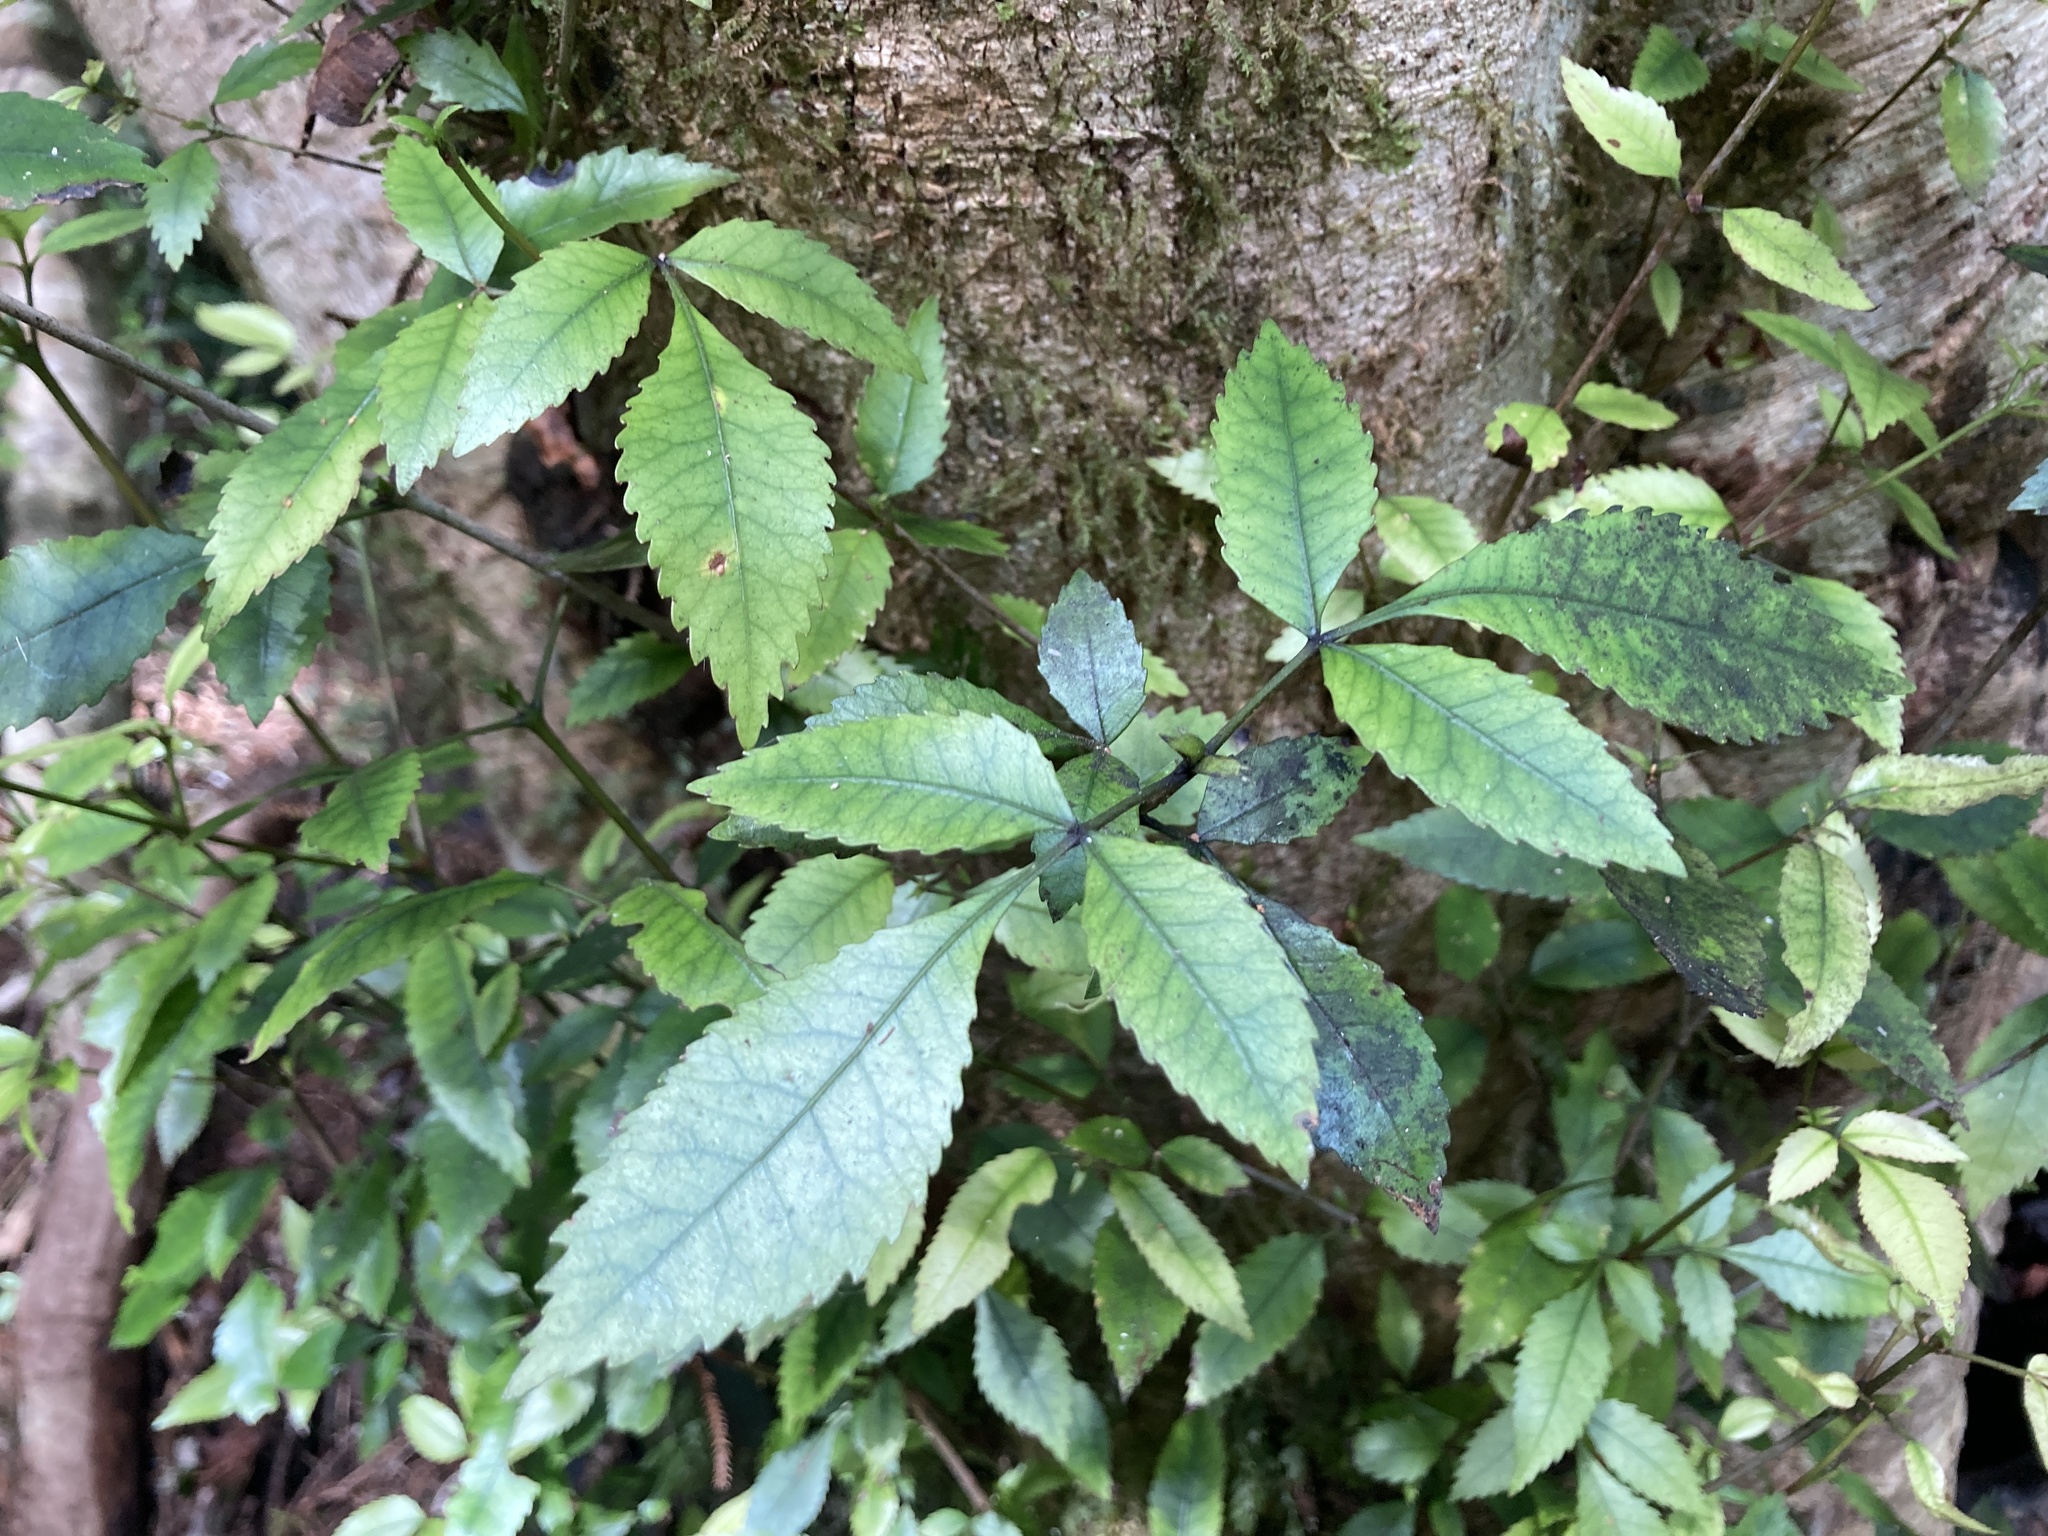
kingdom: Plantae
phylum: Tracheophyta
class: Magnoliopsida
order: Oxalidales
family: Cunoniaceae
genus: Pterophylla
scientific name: Pterophylla racemosa
